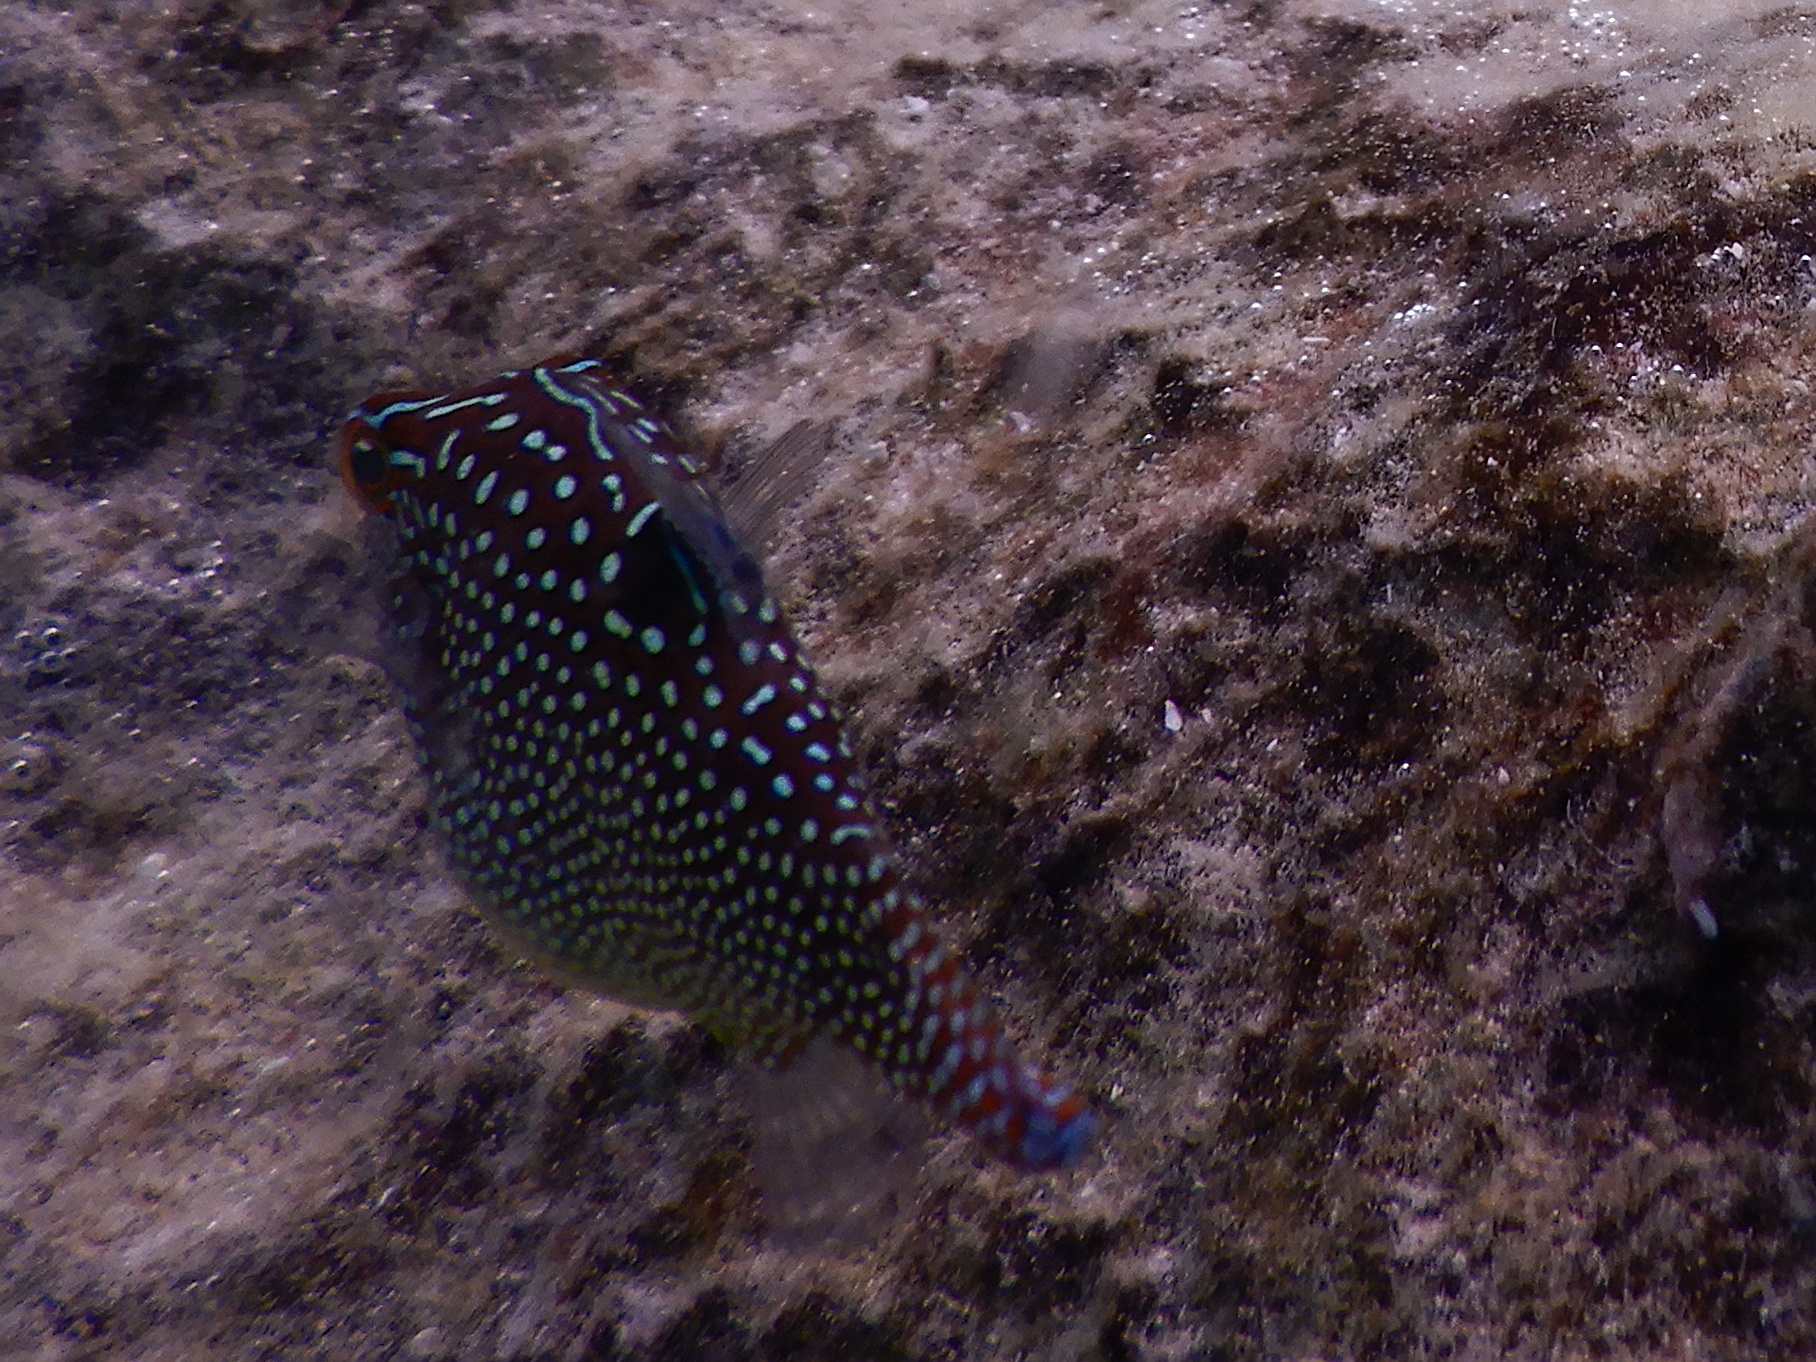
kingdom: Animalia
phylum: Chordata
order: Tetraodontiformes
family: Tetraodontidae
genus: Canthigaster
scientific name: Canthigaster solandri
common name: False-eye toby
